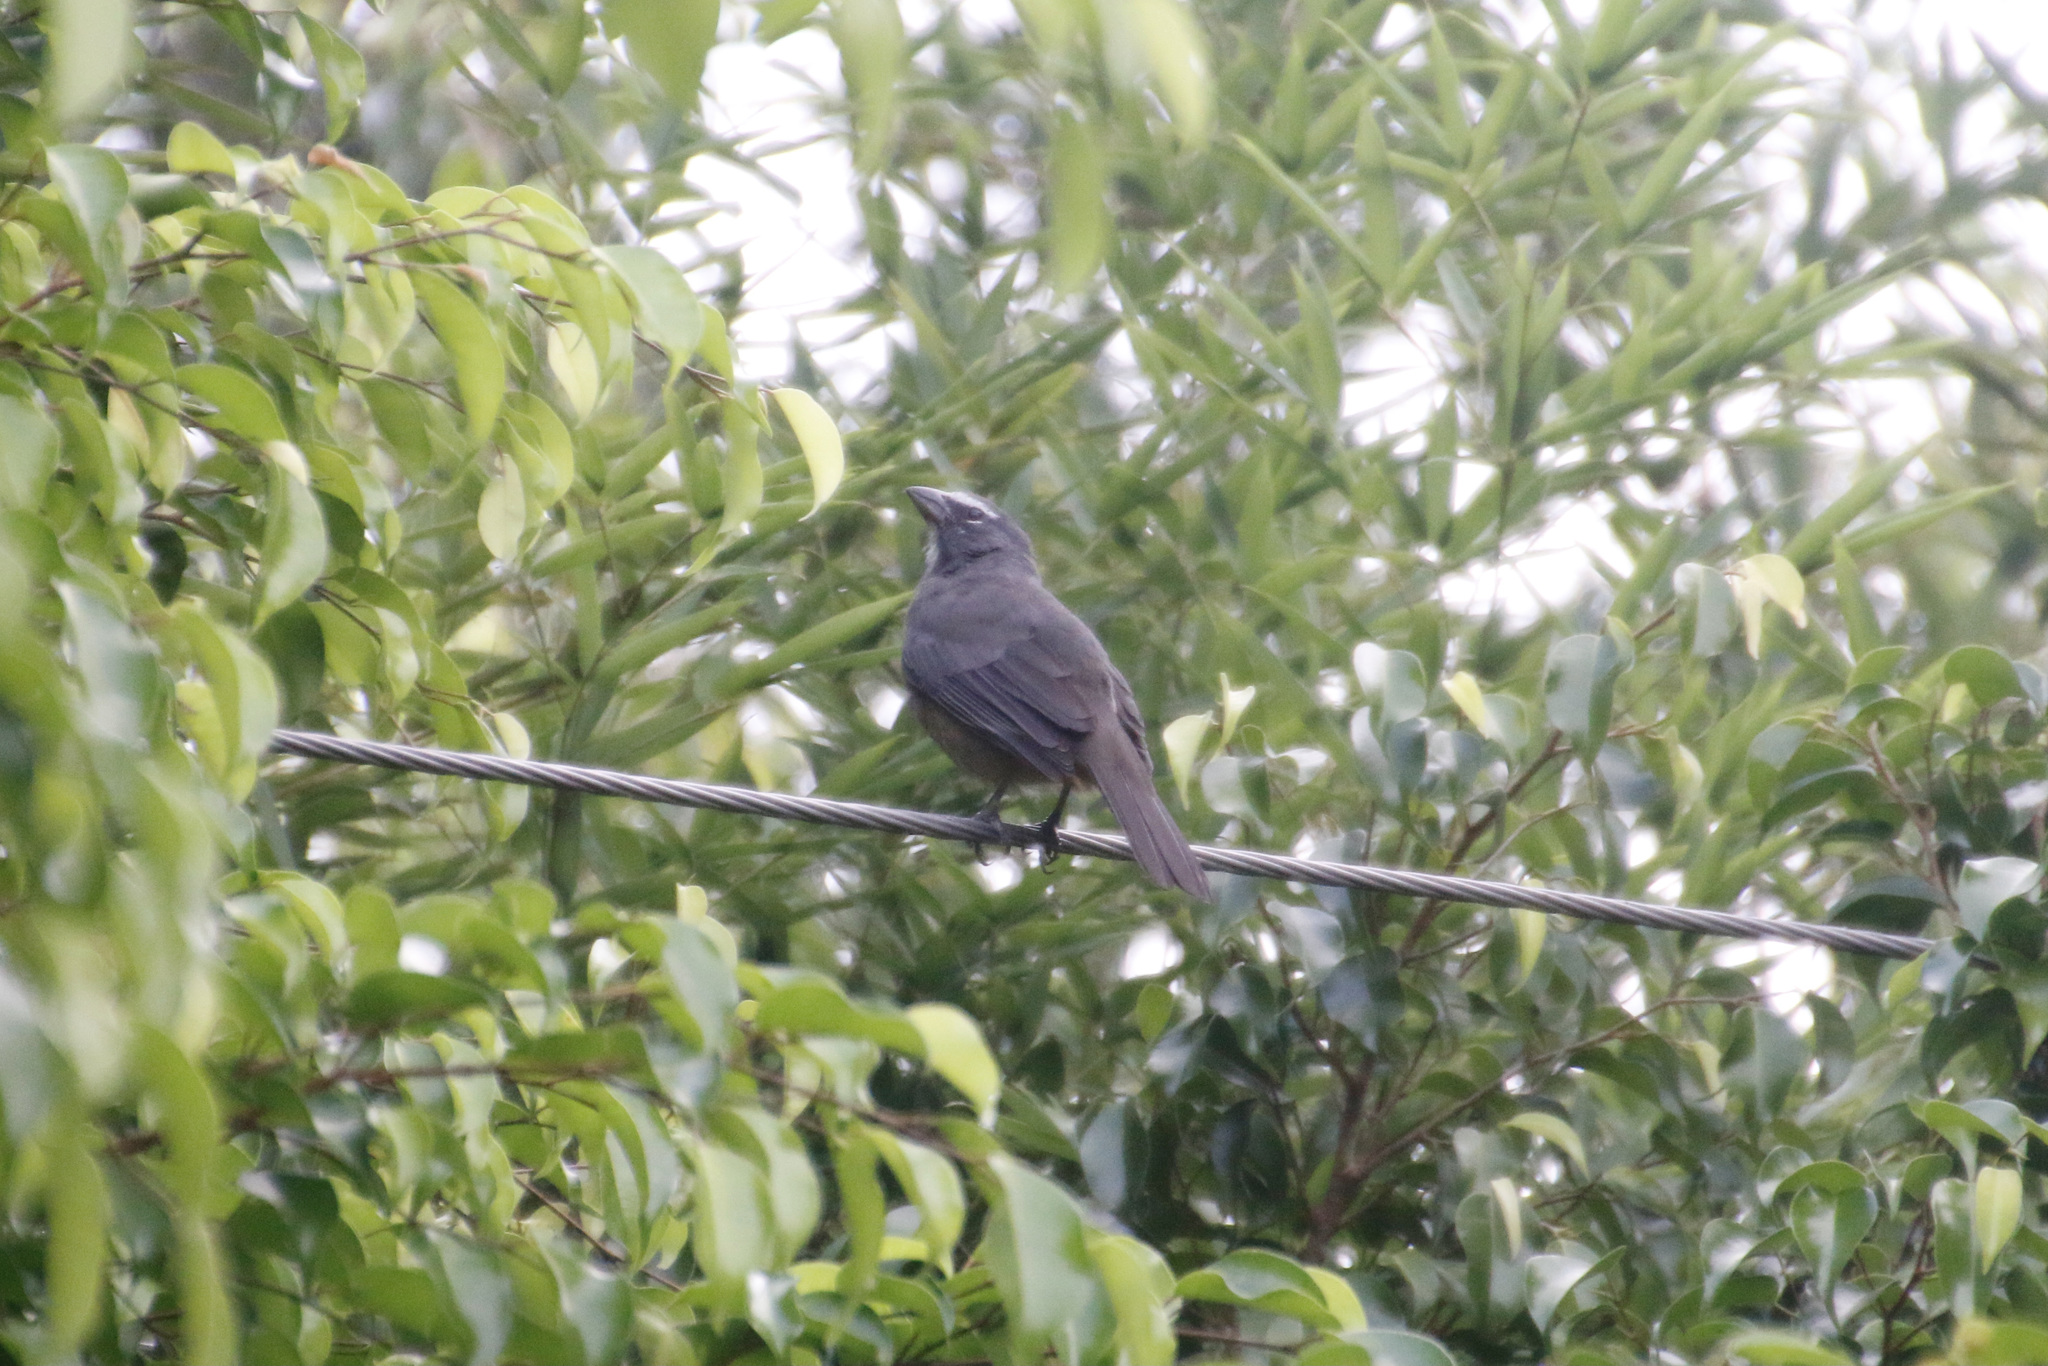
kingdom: Animalia
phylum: Chordata
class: Aves
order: Passeriformes
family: Thraupidae
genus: Saltator
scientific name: Saltator grandis
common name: Cinnamon-bellied saltator
